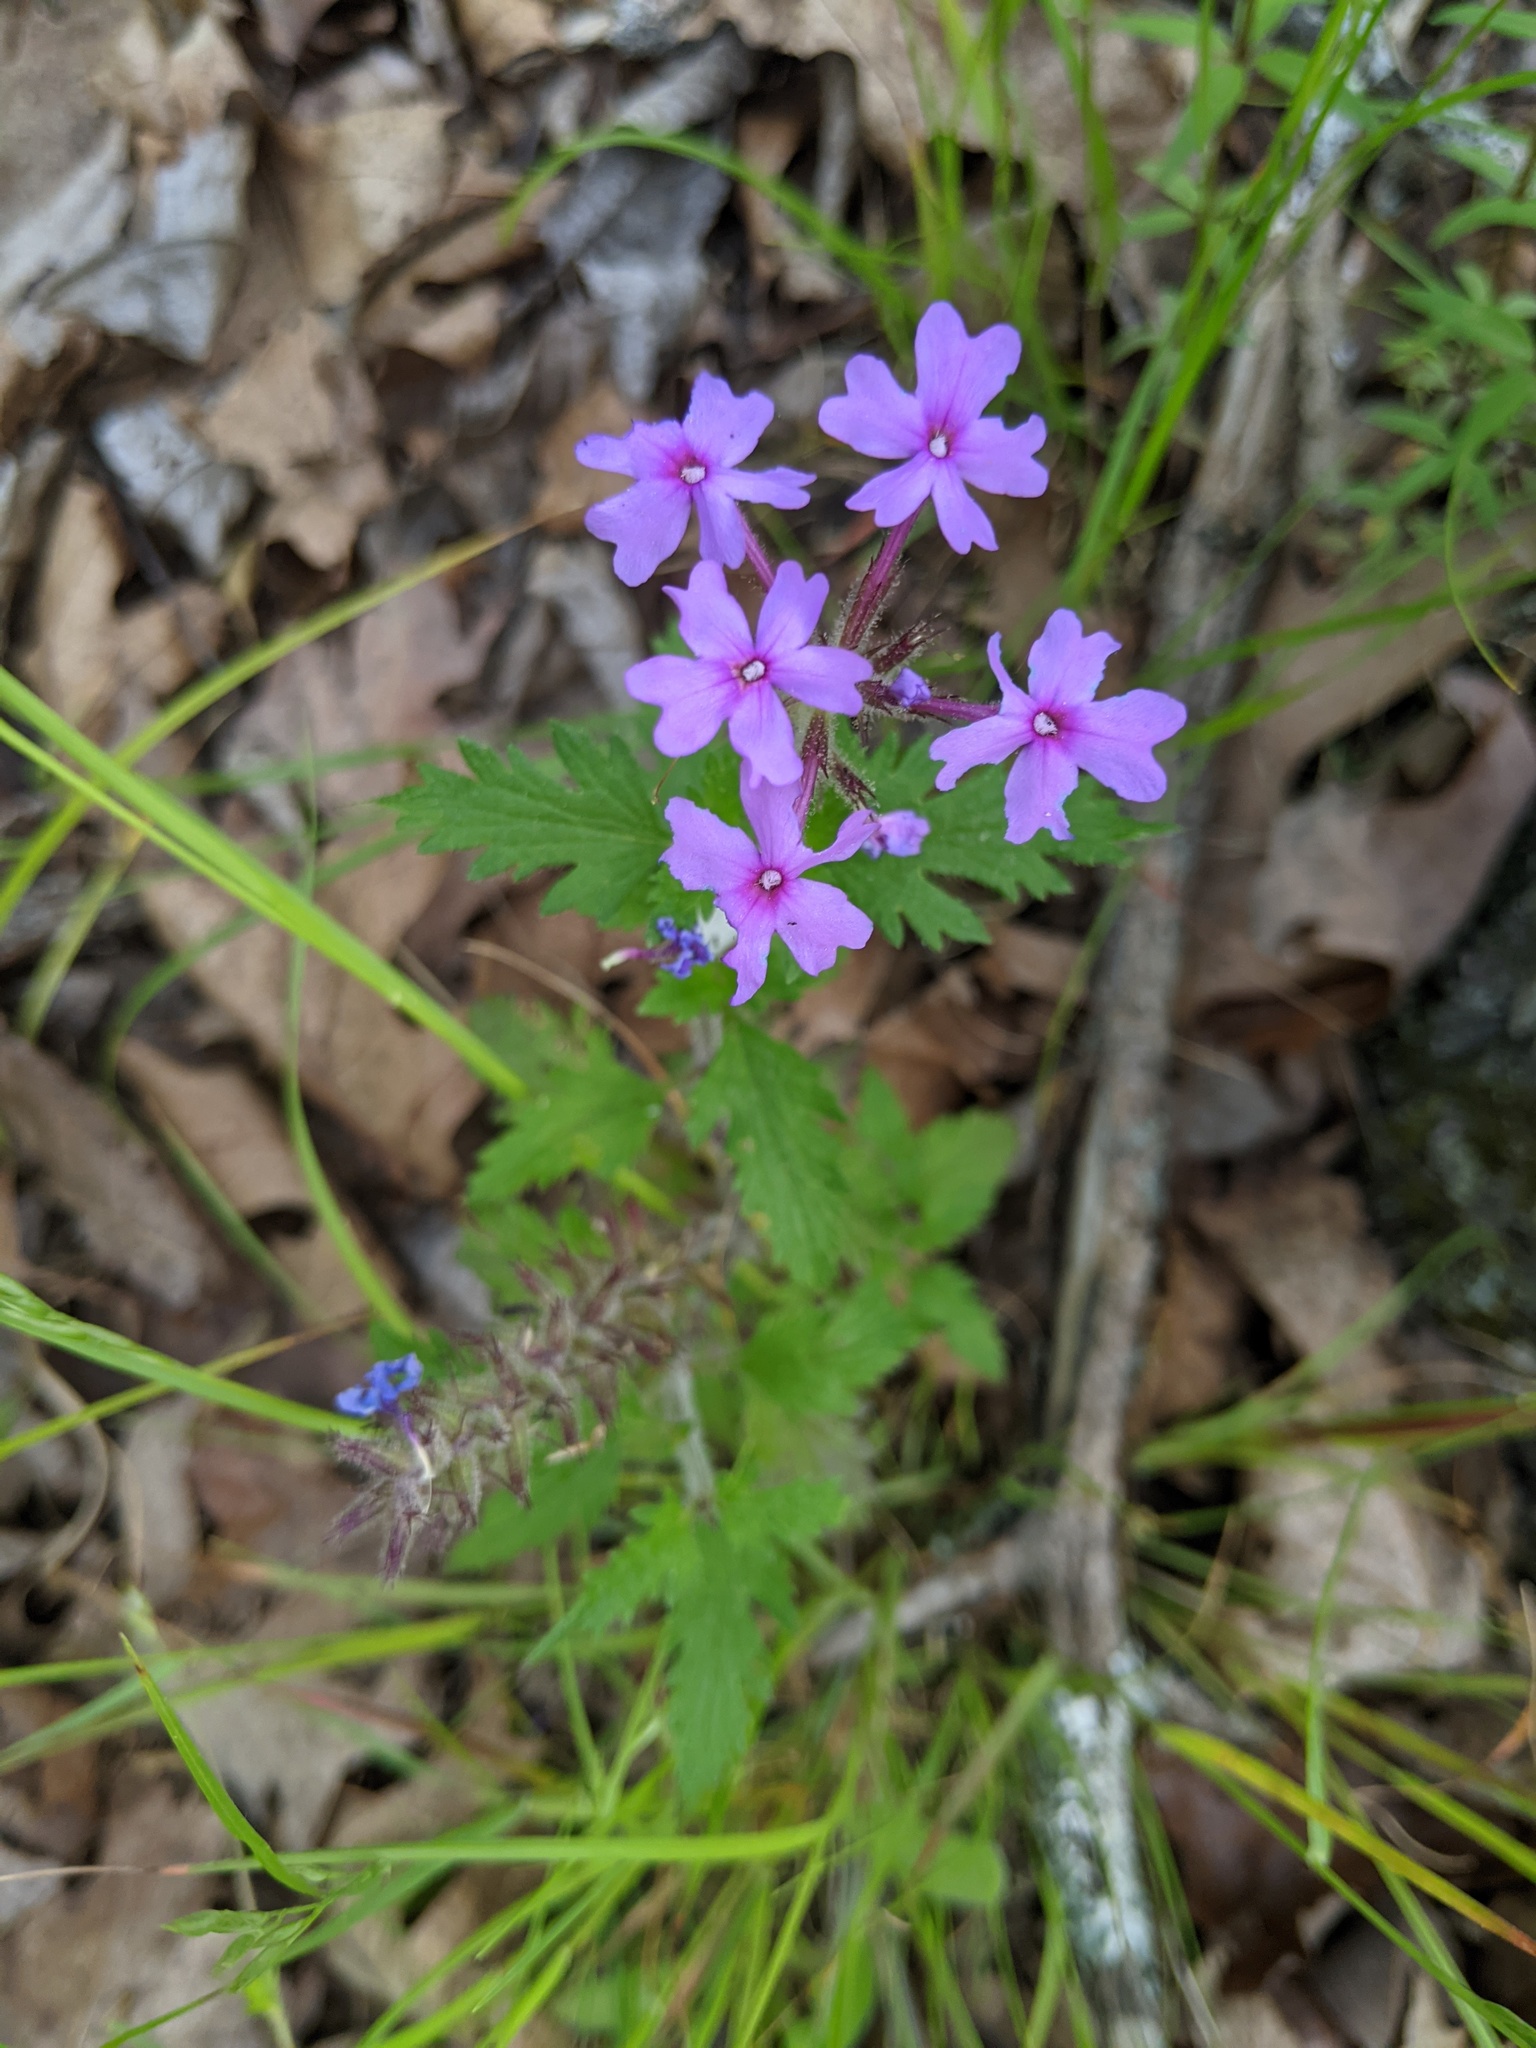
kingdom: Plantae
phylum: Tracheophyta
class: Magnoliopsida
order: Lamiales
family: Verbenaceae
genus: Verbena
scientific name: Verbena canadensis
